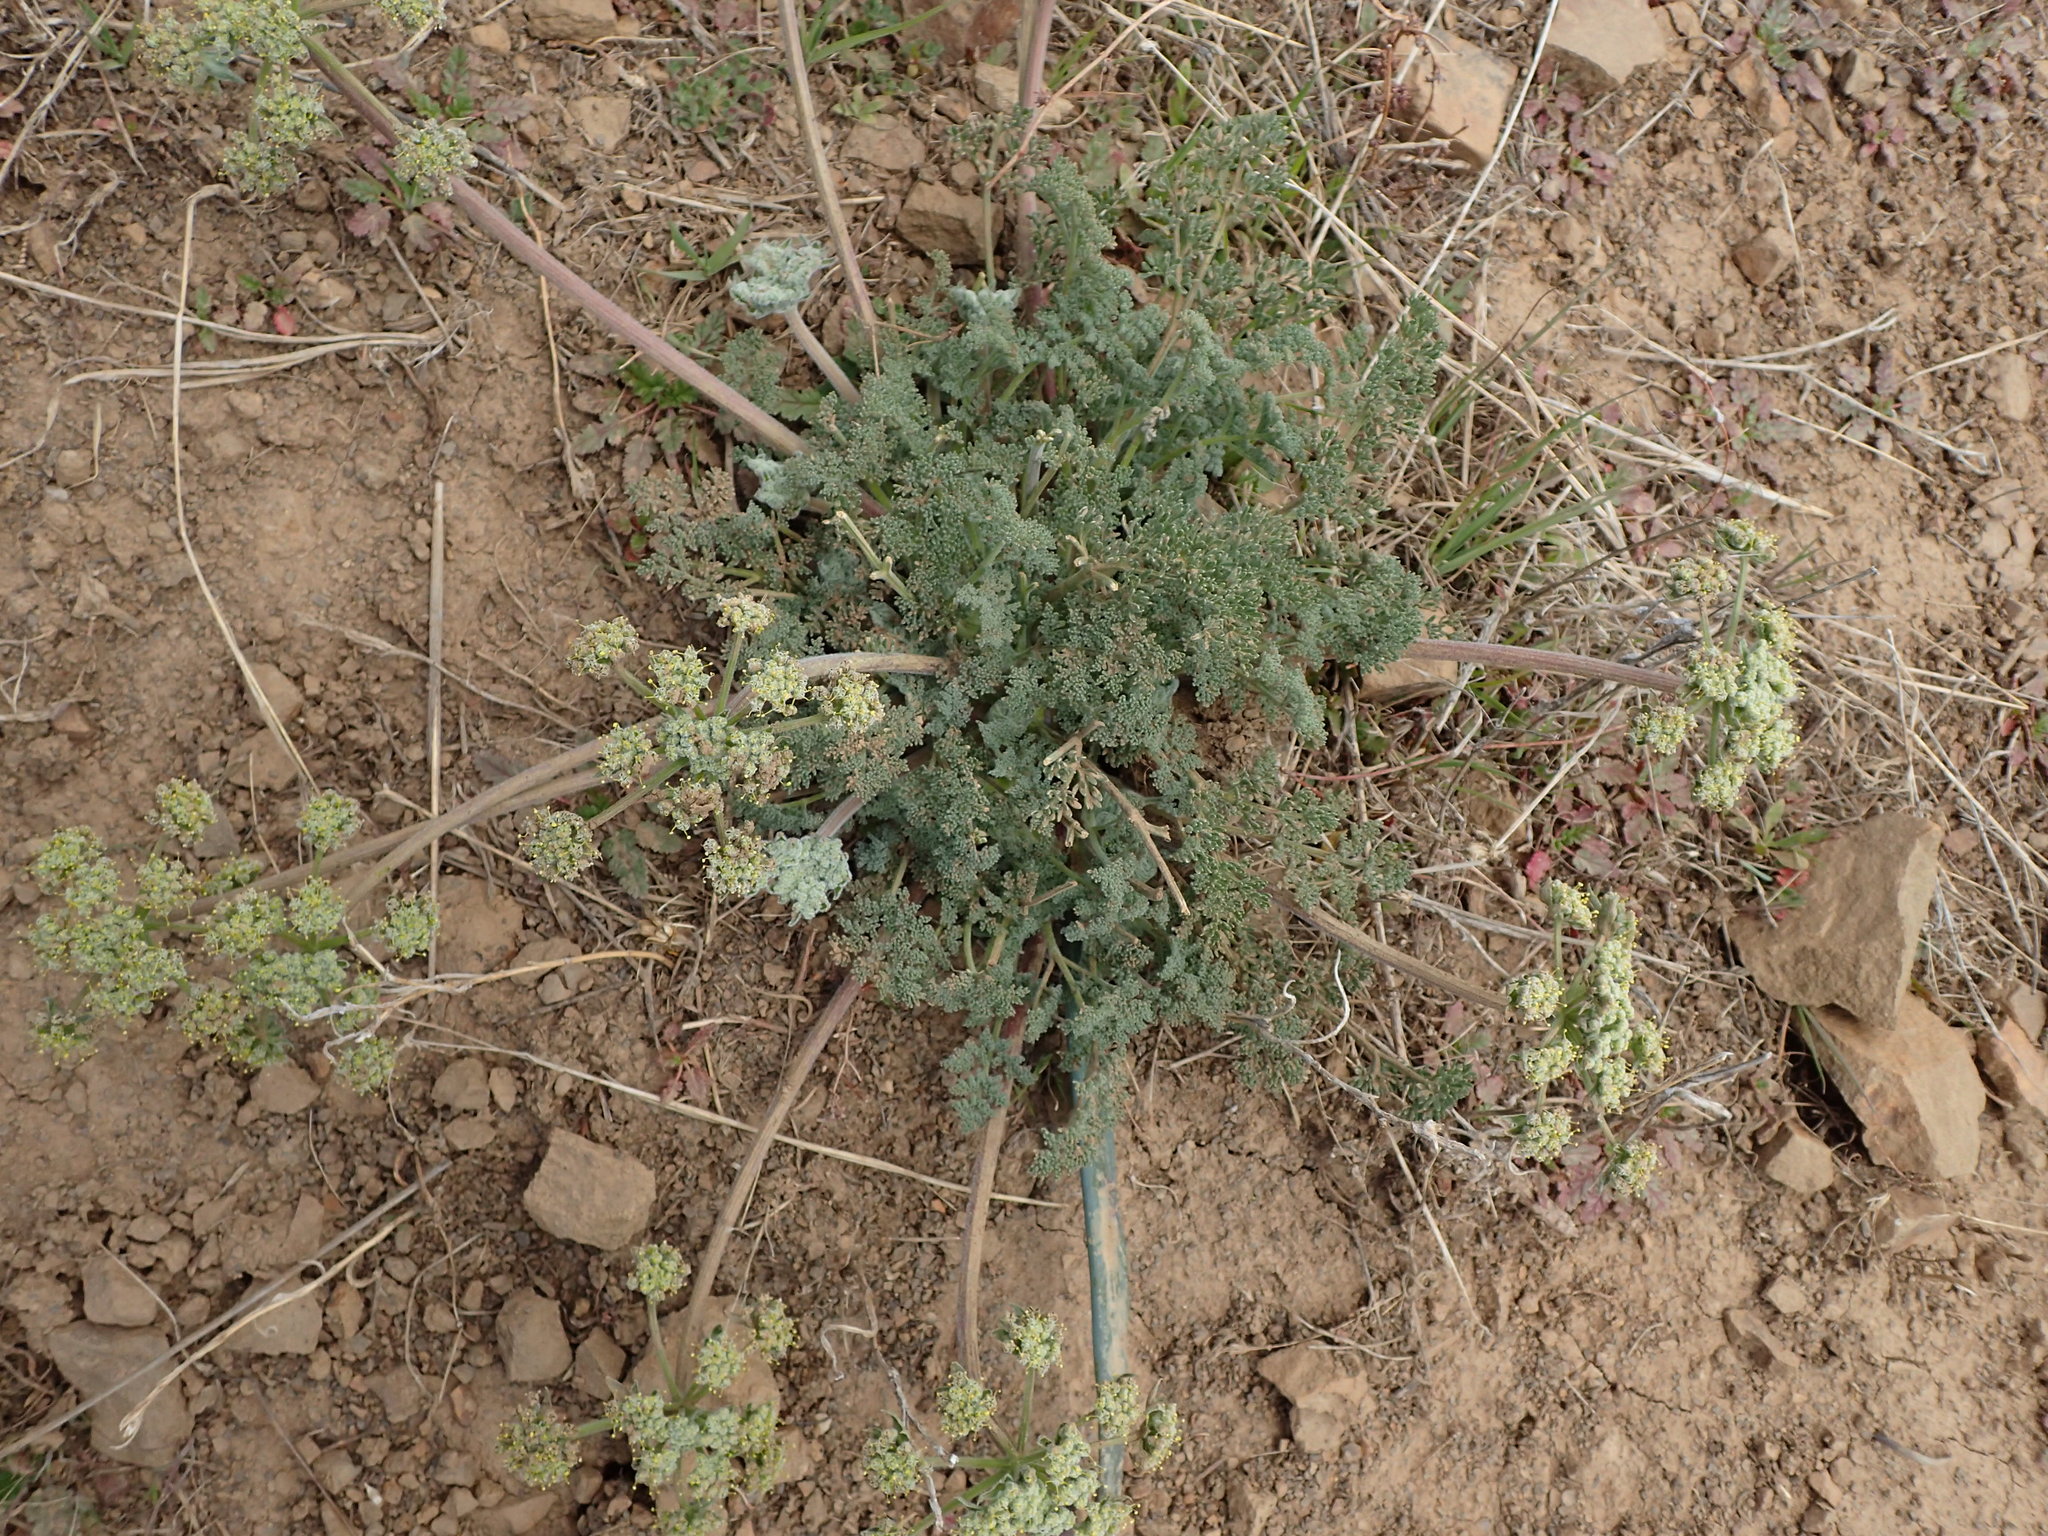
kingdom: Plantae
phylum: Tracheophyta
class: Magnoliopsida
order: Apiales
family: Apiaceae
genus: Lomatium
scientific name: Lomatium dasycarpum
